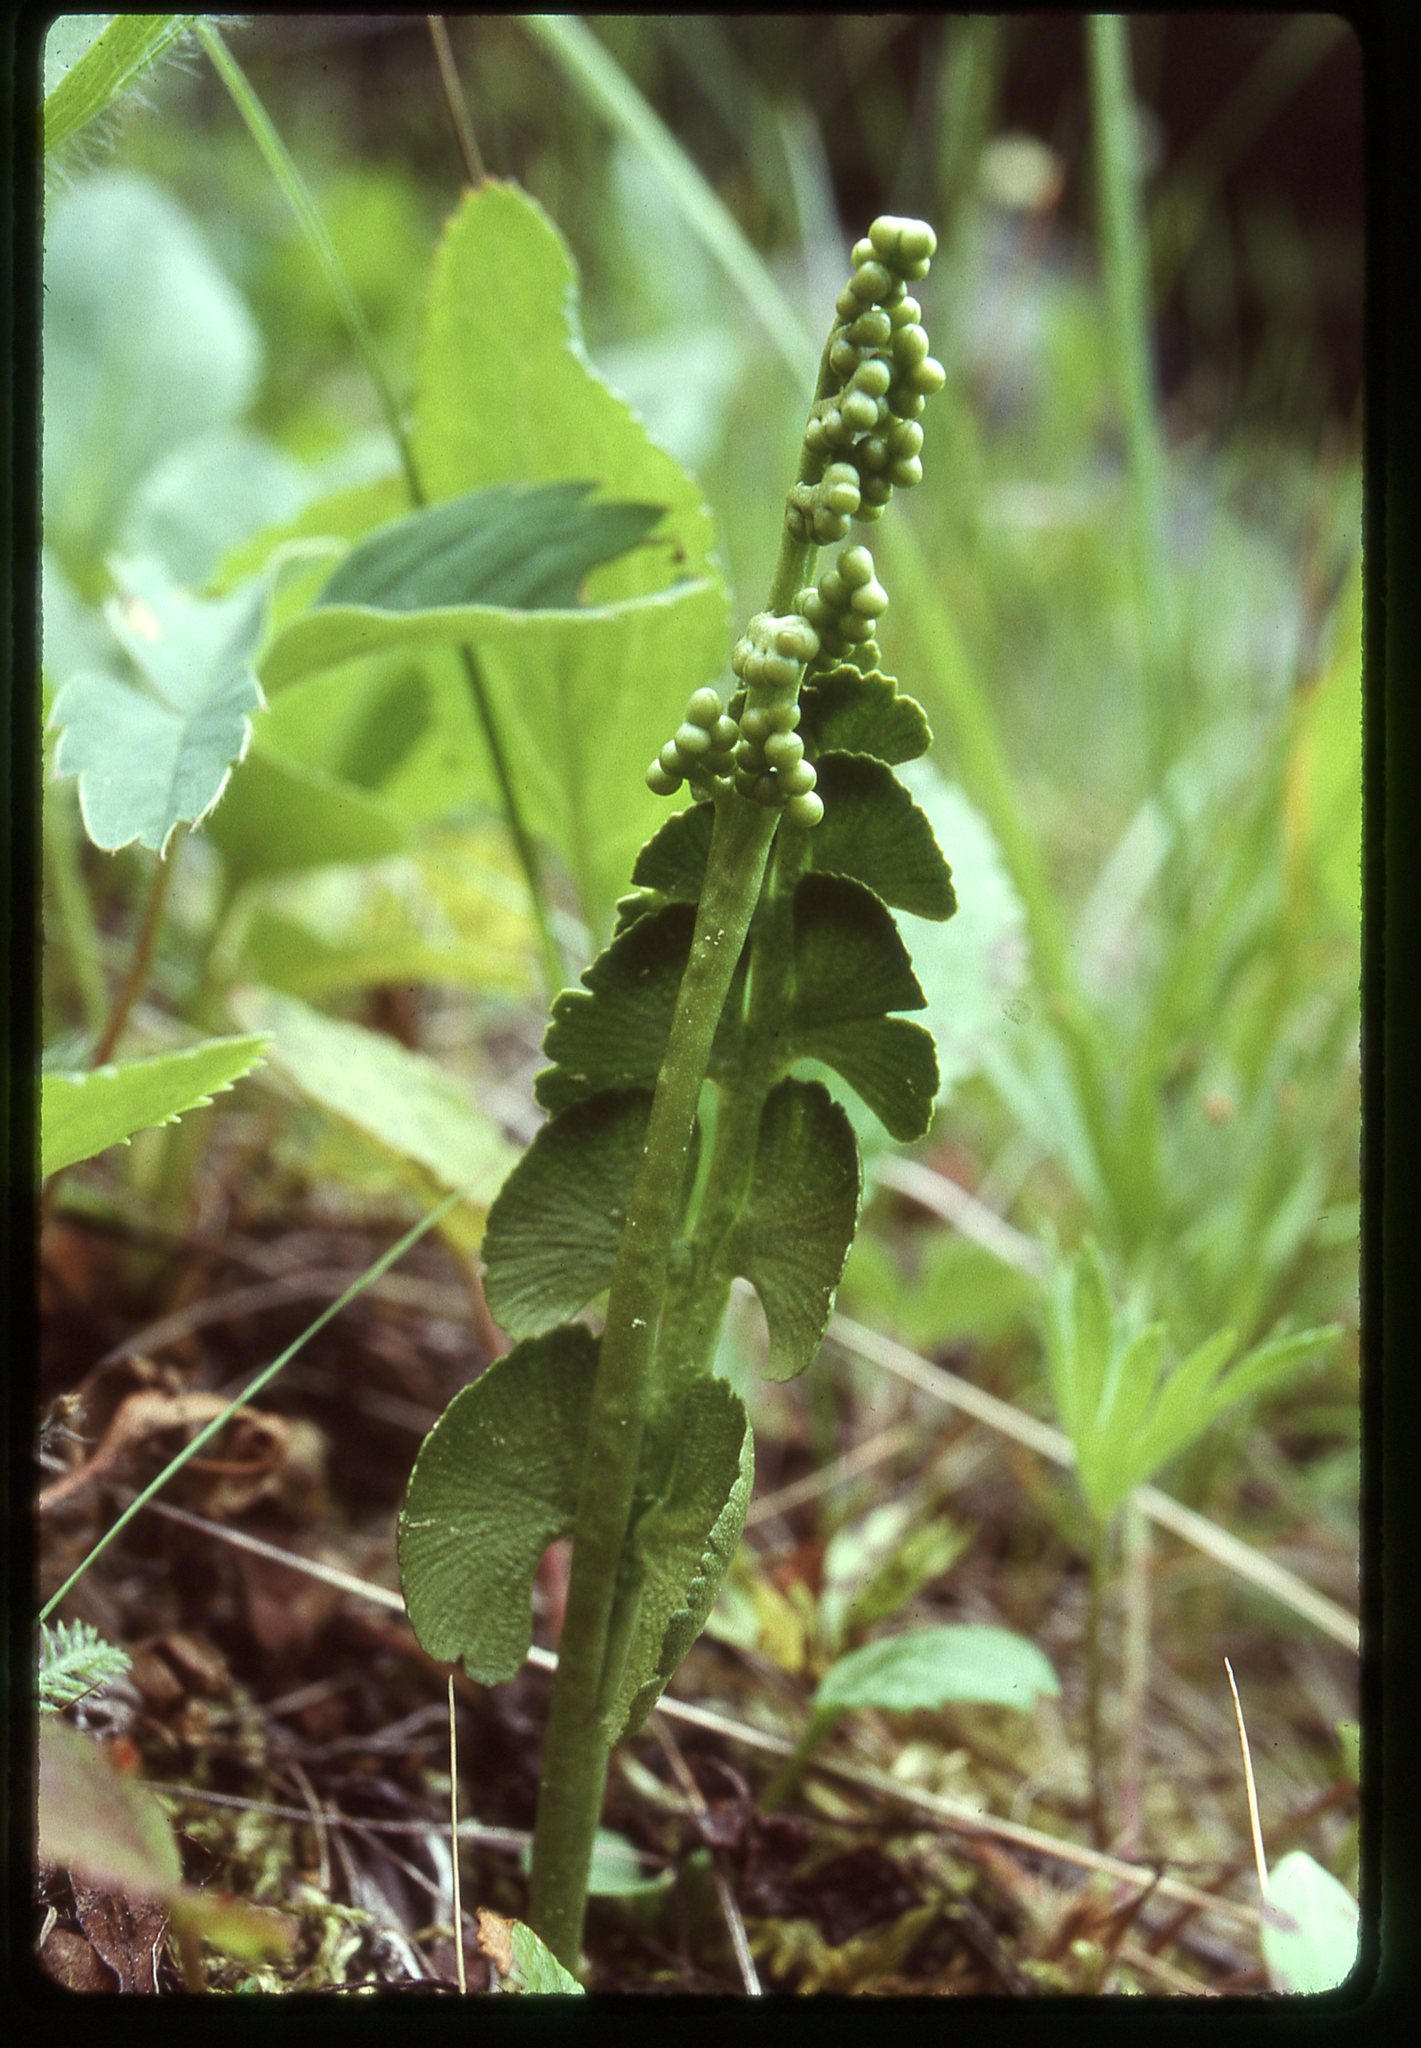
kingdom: Plantae
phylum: Tracheophyta
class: Polypodiopsida
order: Ophioglossales
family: Ophioglossaceae
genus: Botrychium
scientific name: Botrychium neolunaria
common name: New world moonwort
